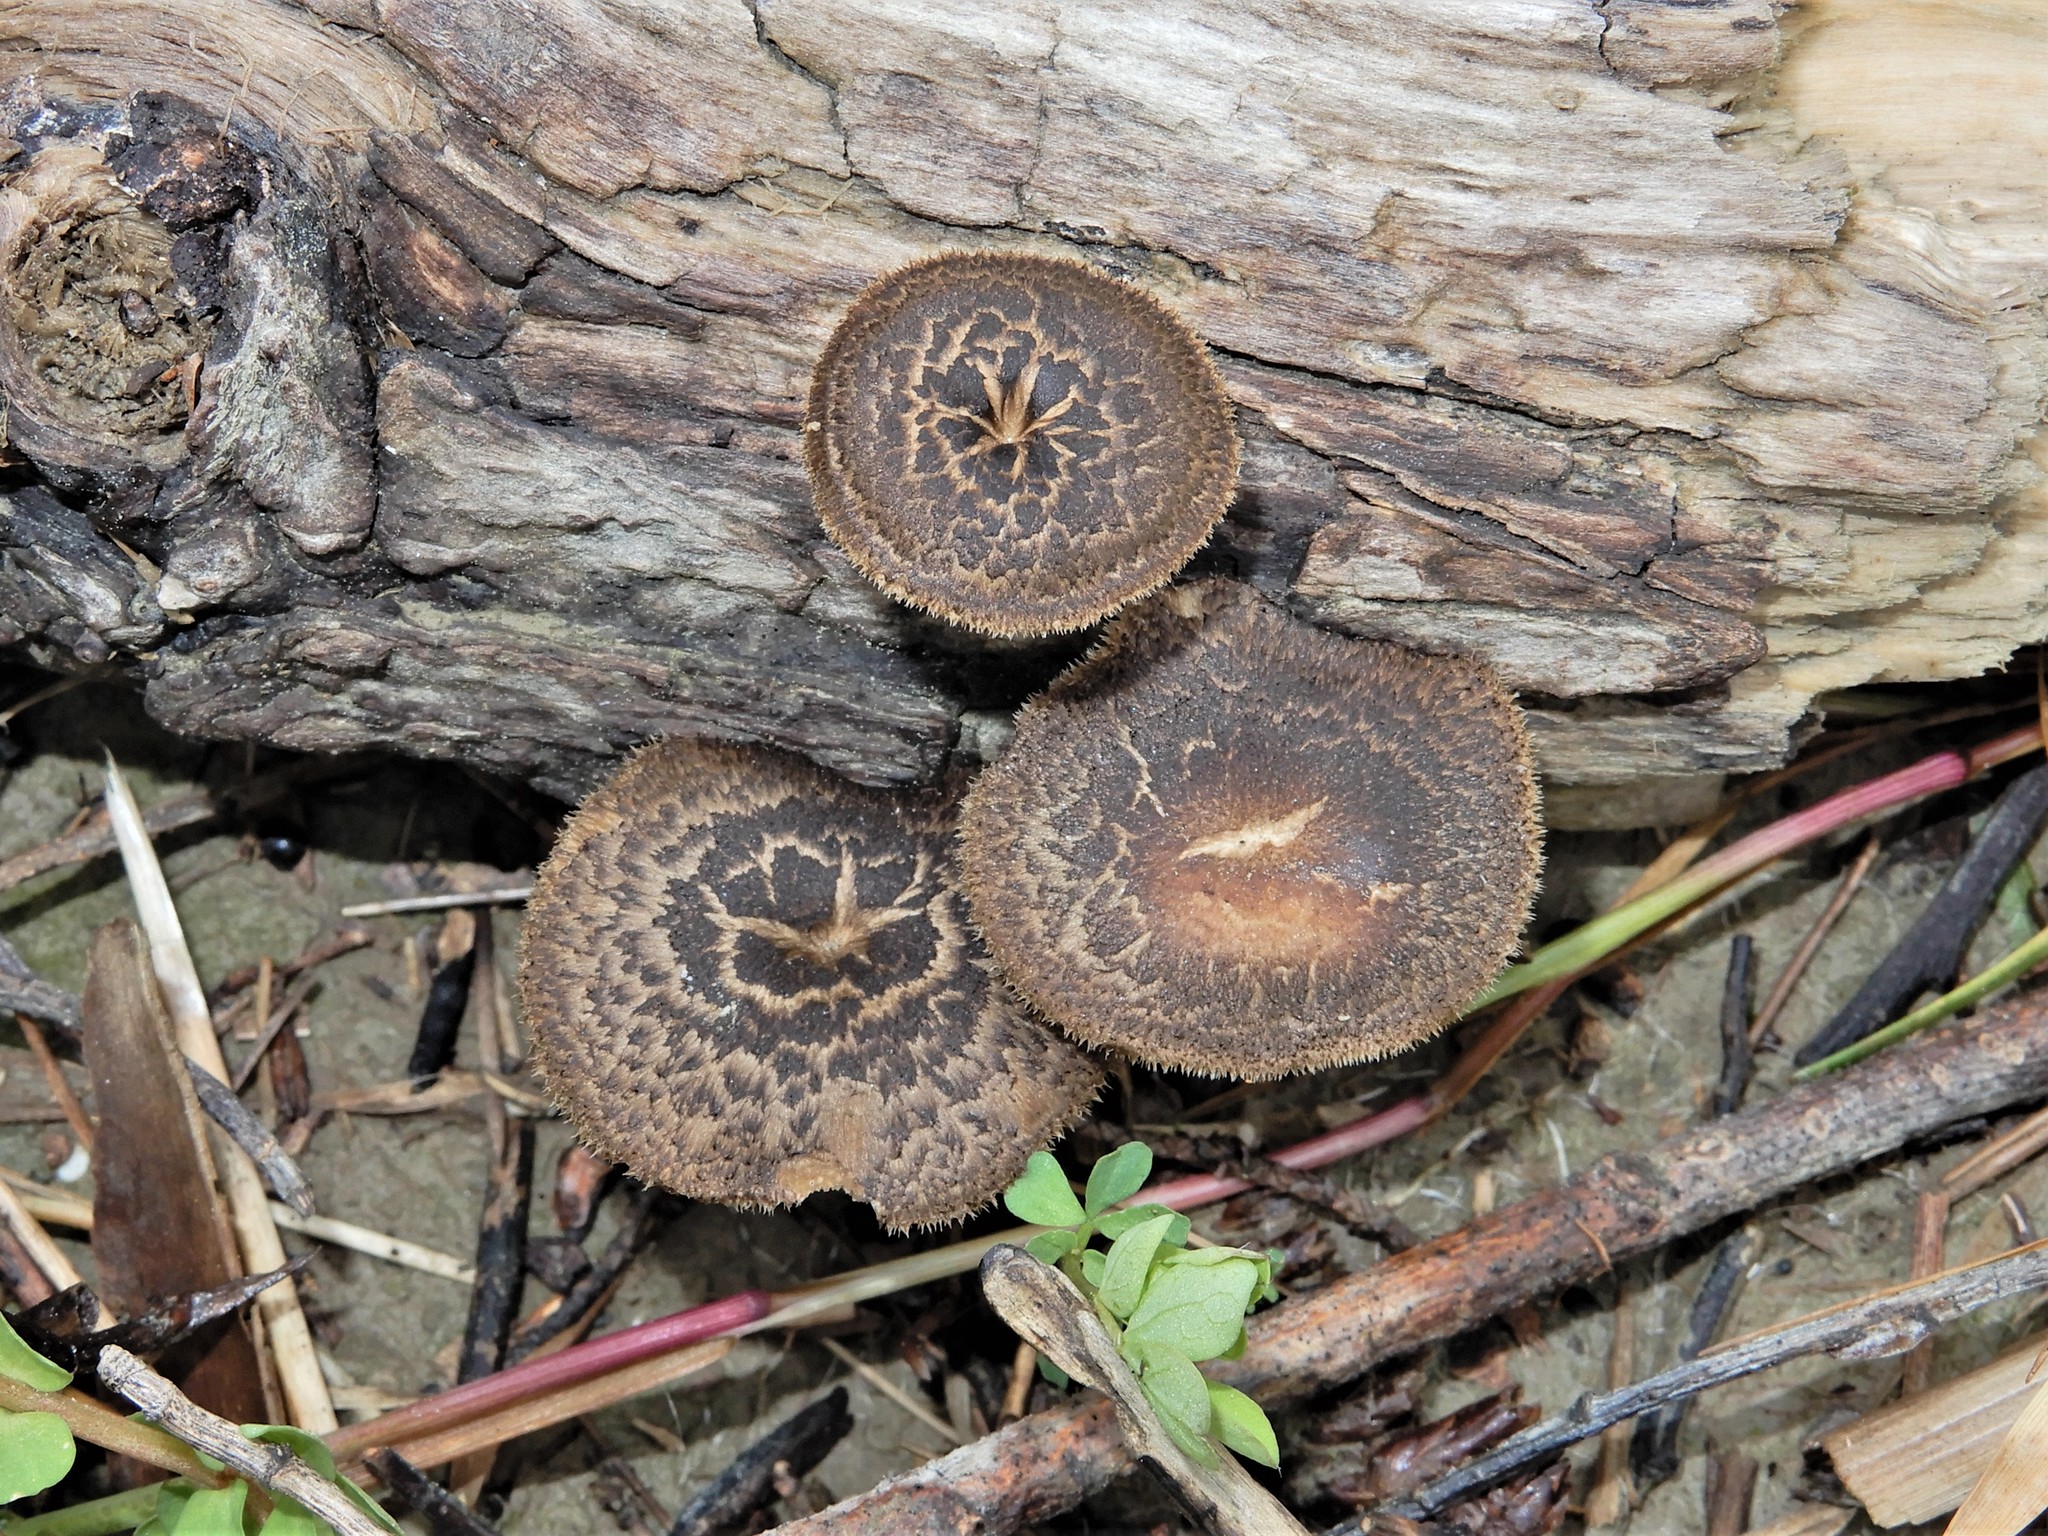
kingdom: Fungi
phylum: Basidiomycota
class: Agaricomycetes
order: Polyporales
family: Polyporaceae
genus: Lentinus
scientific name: Lentinus arcularius
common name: Spring polypore
